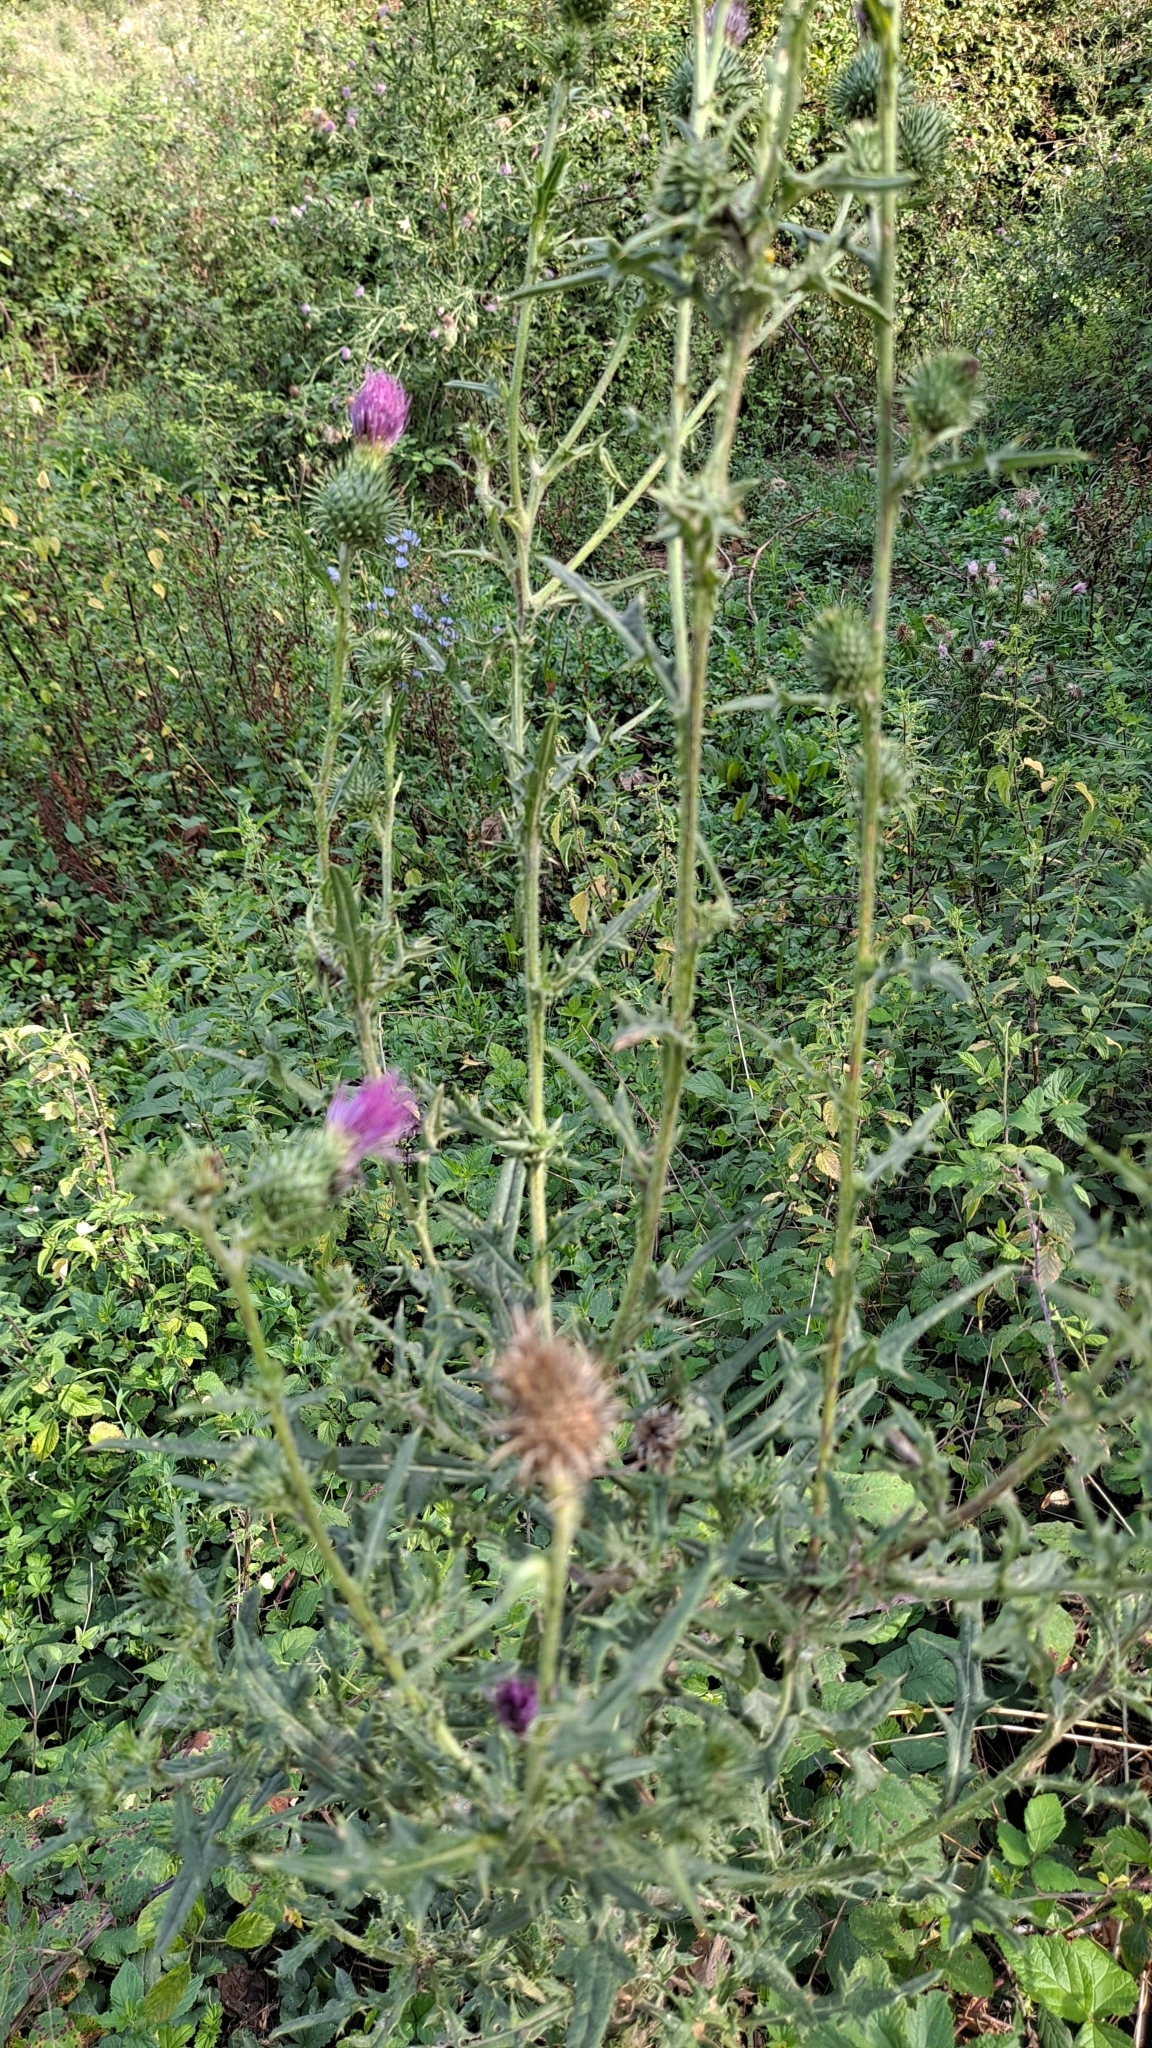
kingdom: Plantae
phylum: Tracheophyta
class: Magnoliopsida
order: Asterales
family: Asteraceae
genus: Cirsium
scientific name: Cirsium vulgare
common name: Bull thistle
